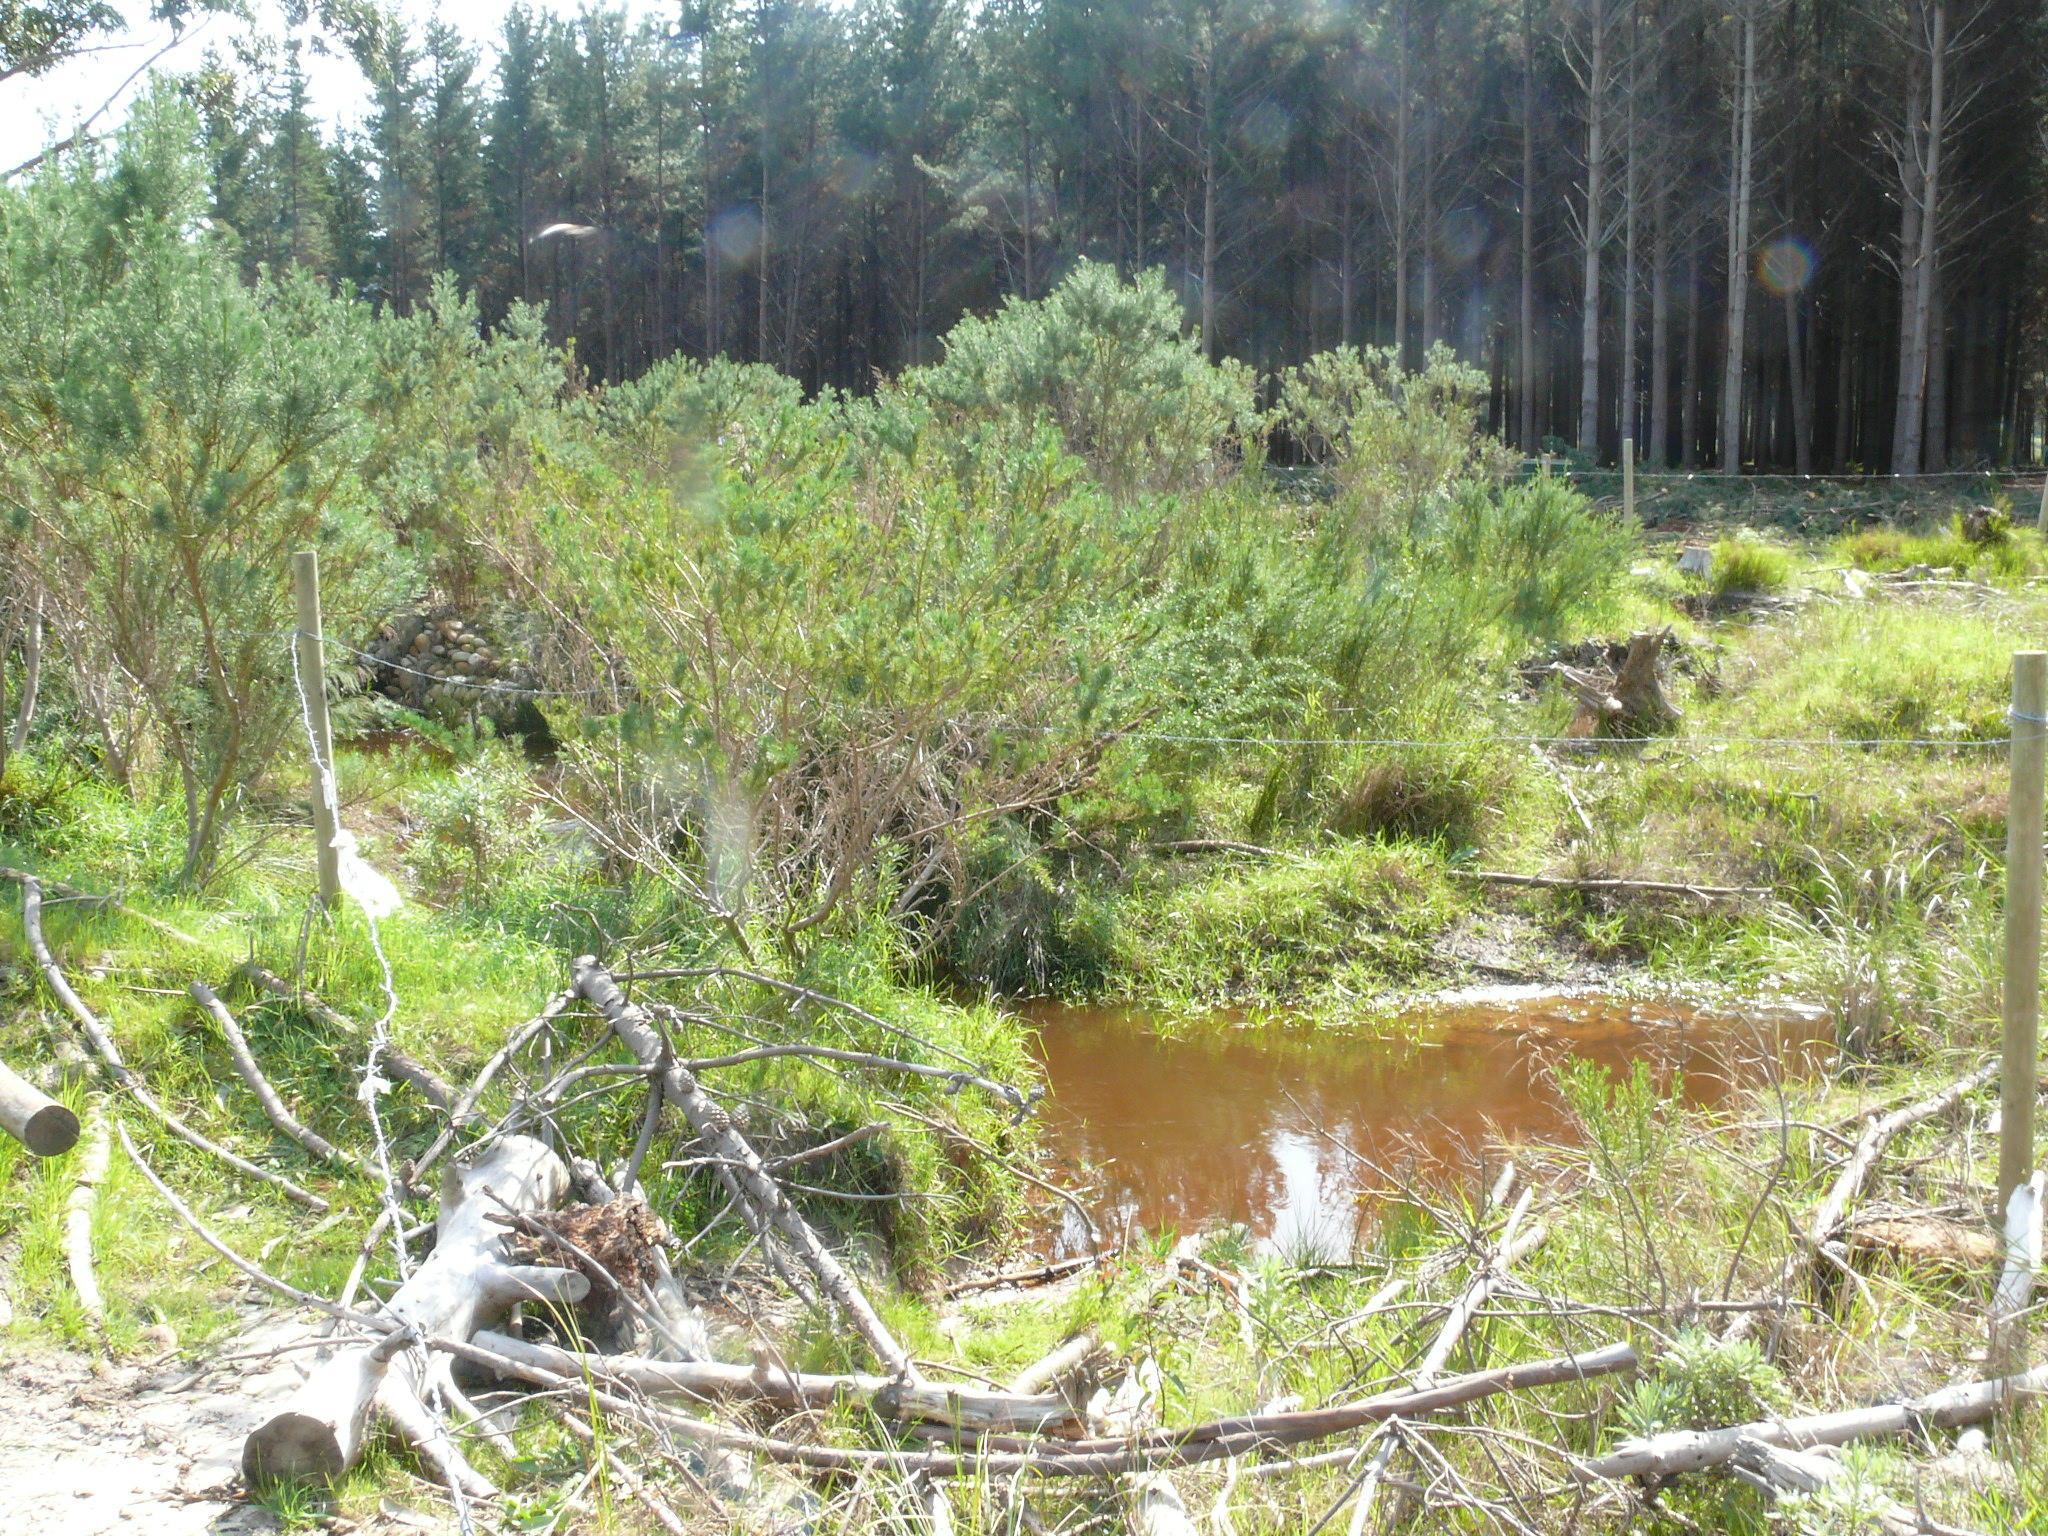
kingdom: Plantae
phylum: Tracheophyta
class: Magnoliopsida
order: Fabales
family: Fabaceae
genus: Psoralea
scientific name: Psoralea pinnata
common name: African scurfpea
